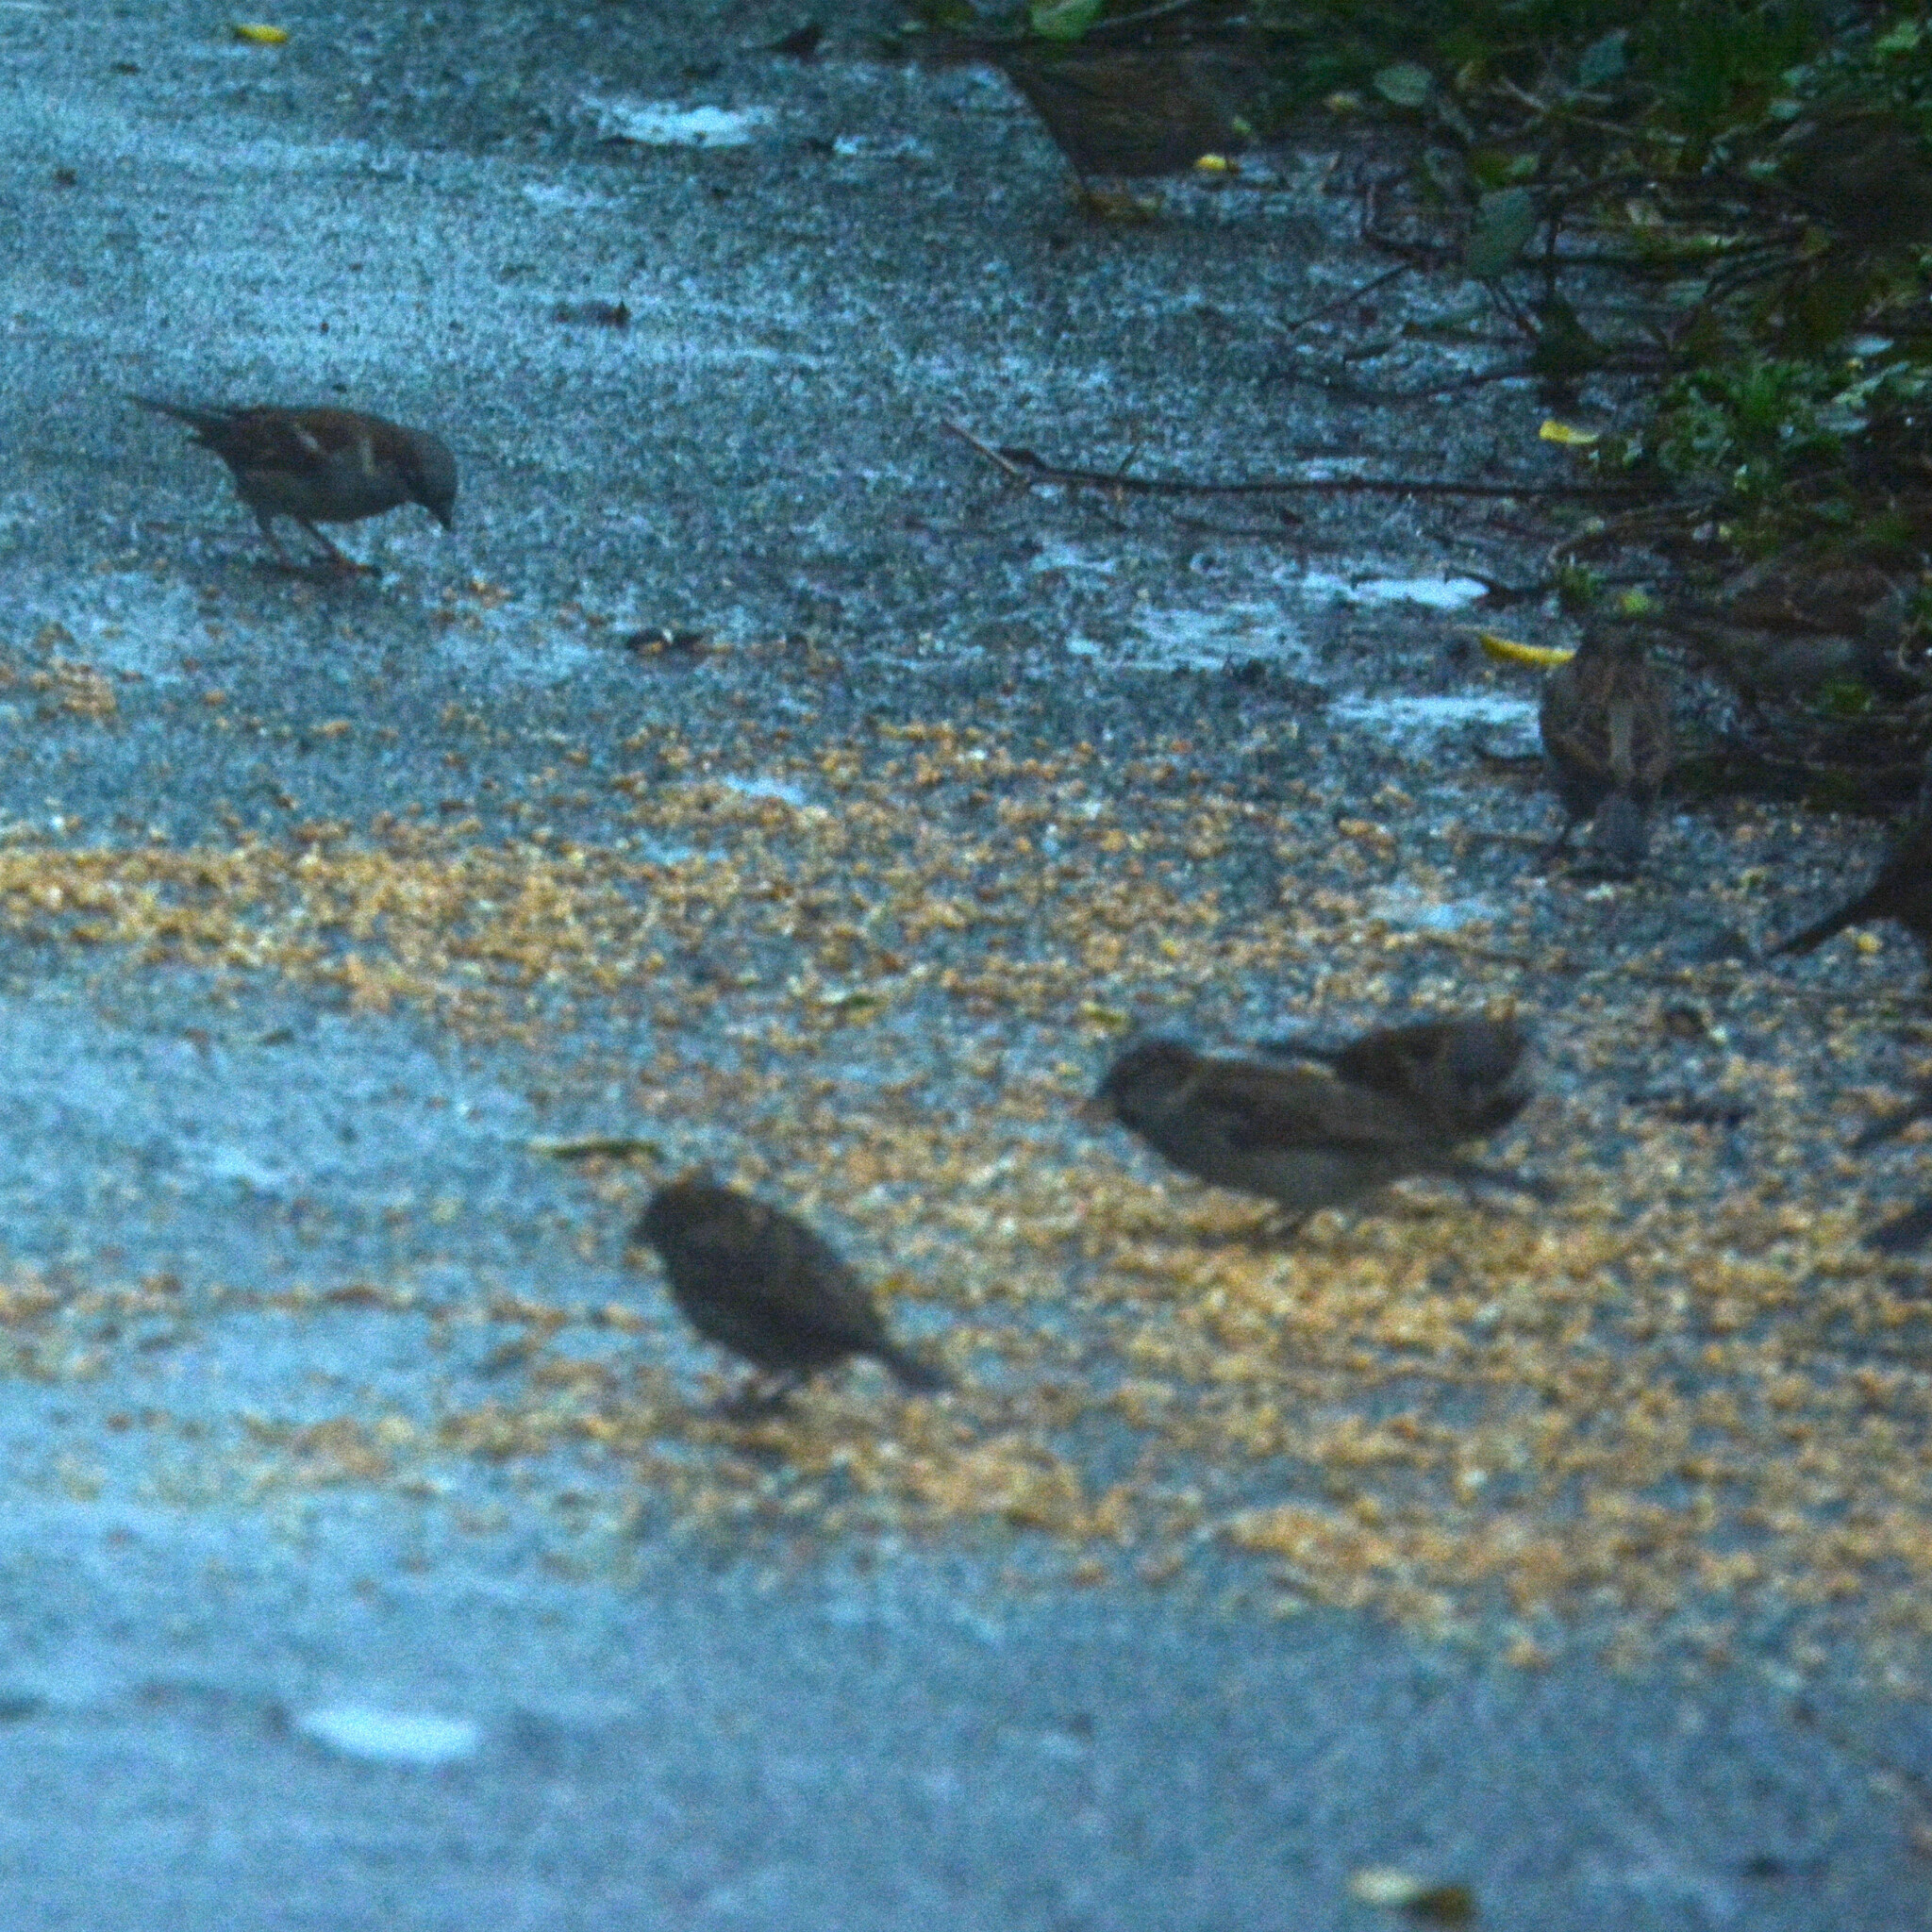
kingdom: Animalia
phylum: Chordata
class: Aves
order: Passeriformes
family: Passeridae
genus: Passer
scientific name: Passer domesticus
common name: House sparrow
